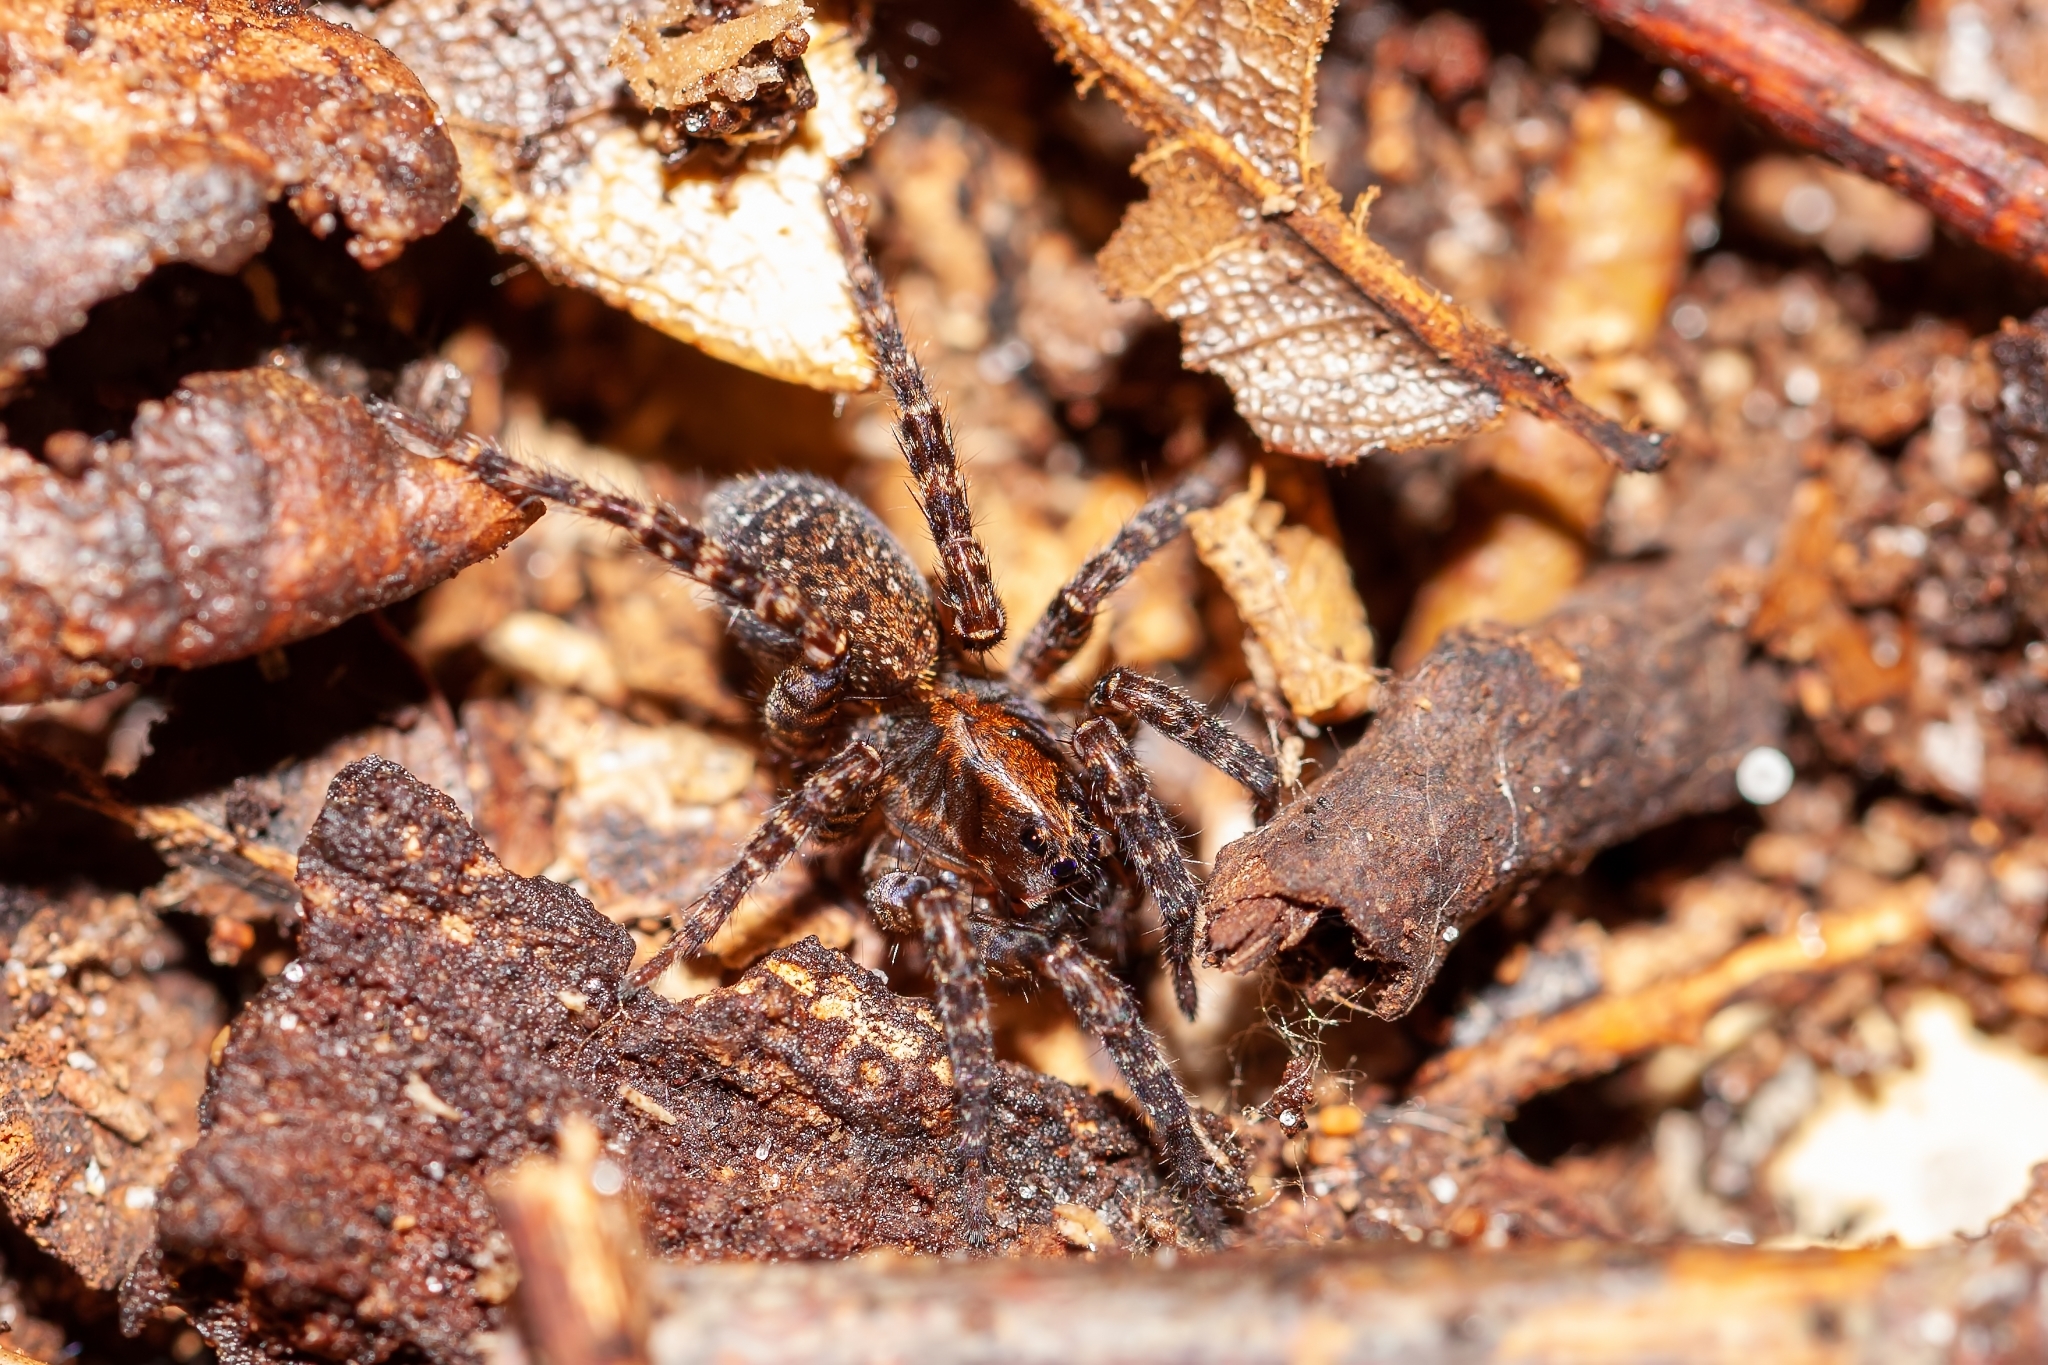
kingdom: Animalia
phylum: Arthropoda
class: Arachnida
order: Araneae
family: Lycosidae
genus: Trochosa
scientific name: Trochosa abdita
